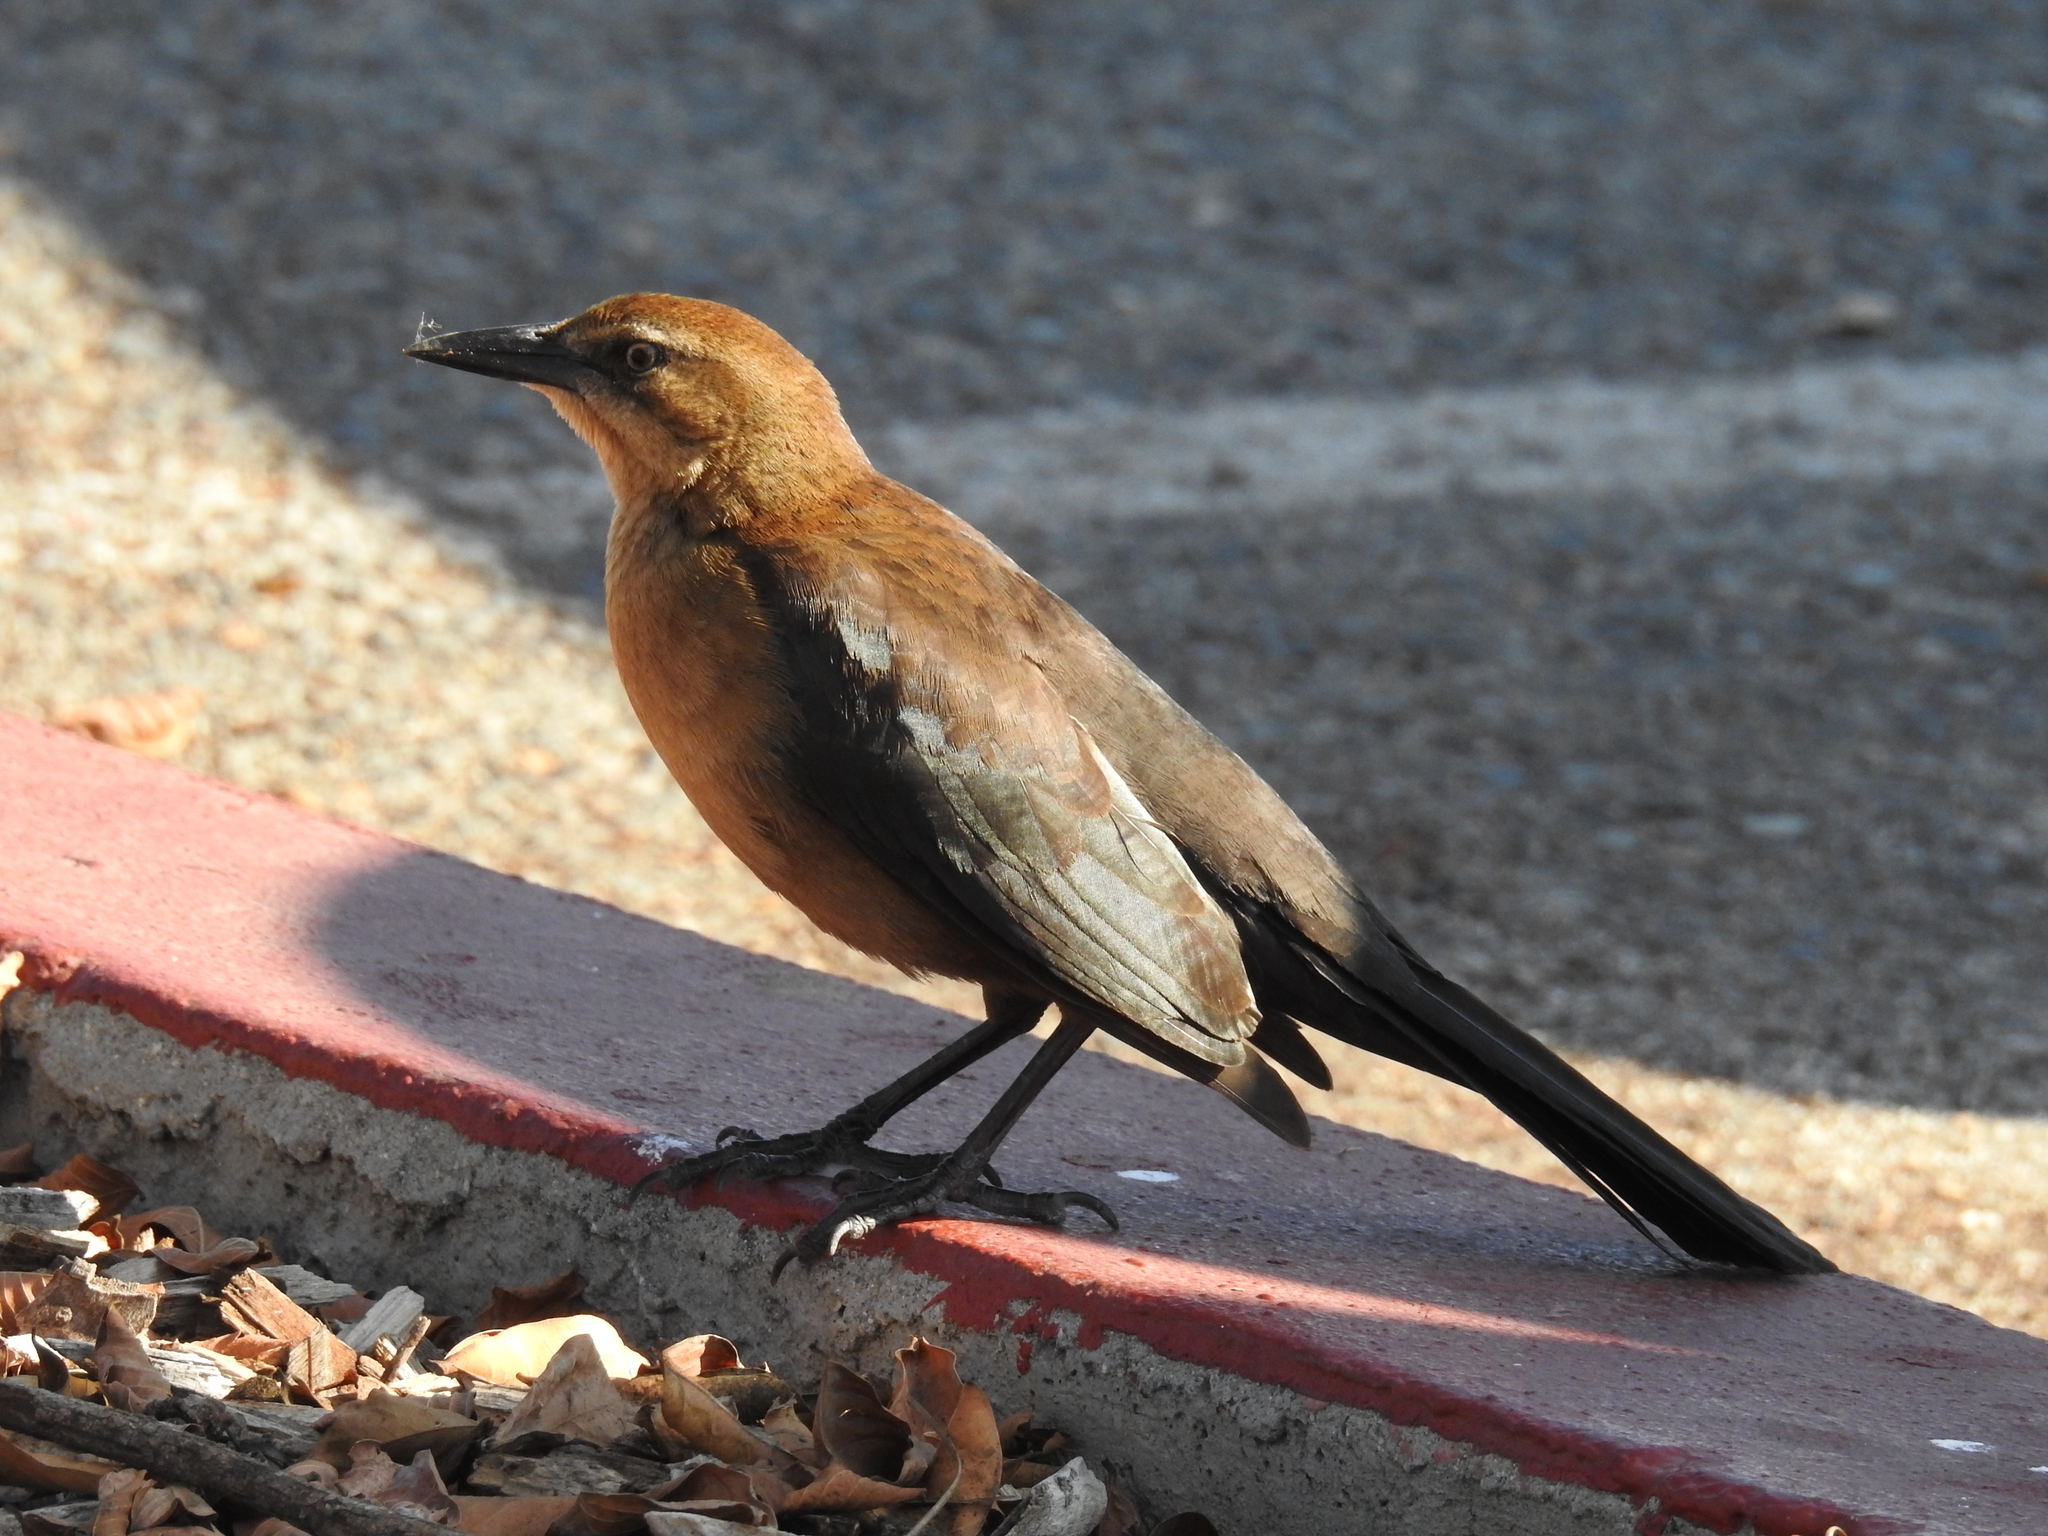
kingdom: Animalia
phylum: Chordata
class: Aves
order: Passeriformes
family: Icteridae
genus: Quiscalus
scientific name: Quiscalus mexicanus
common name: Great-tailed grackle
